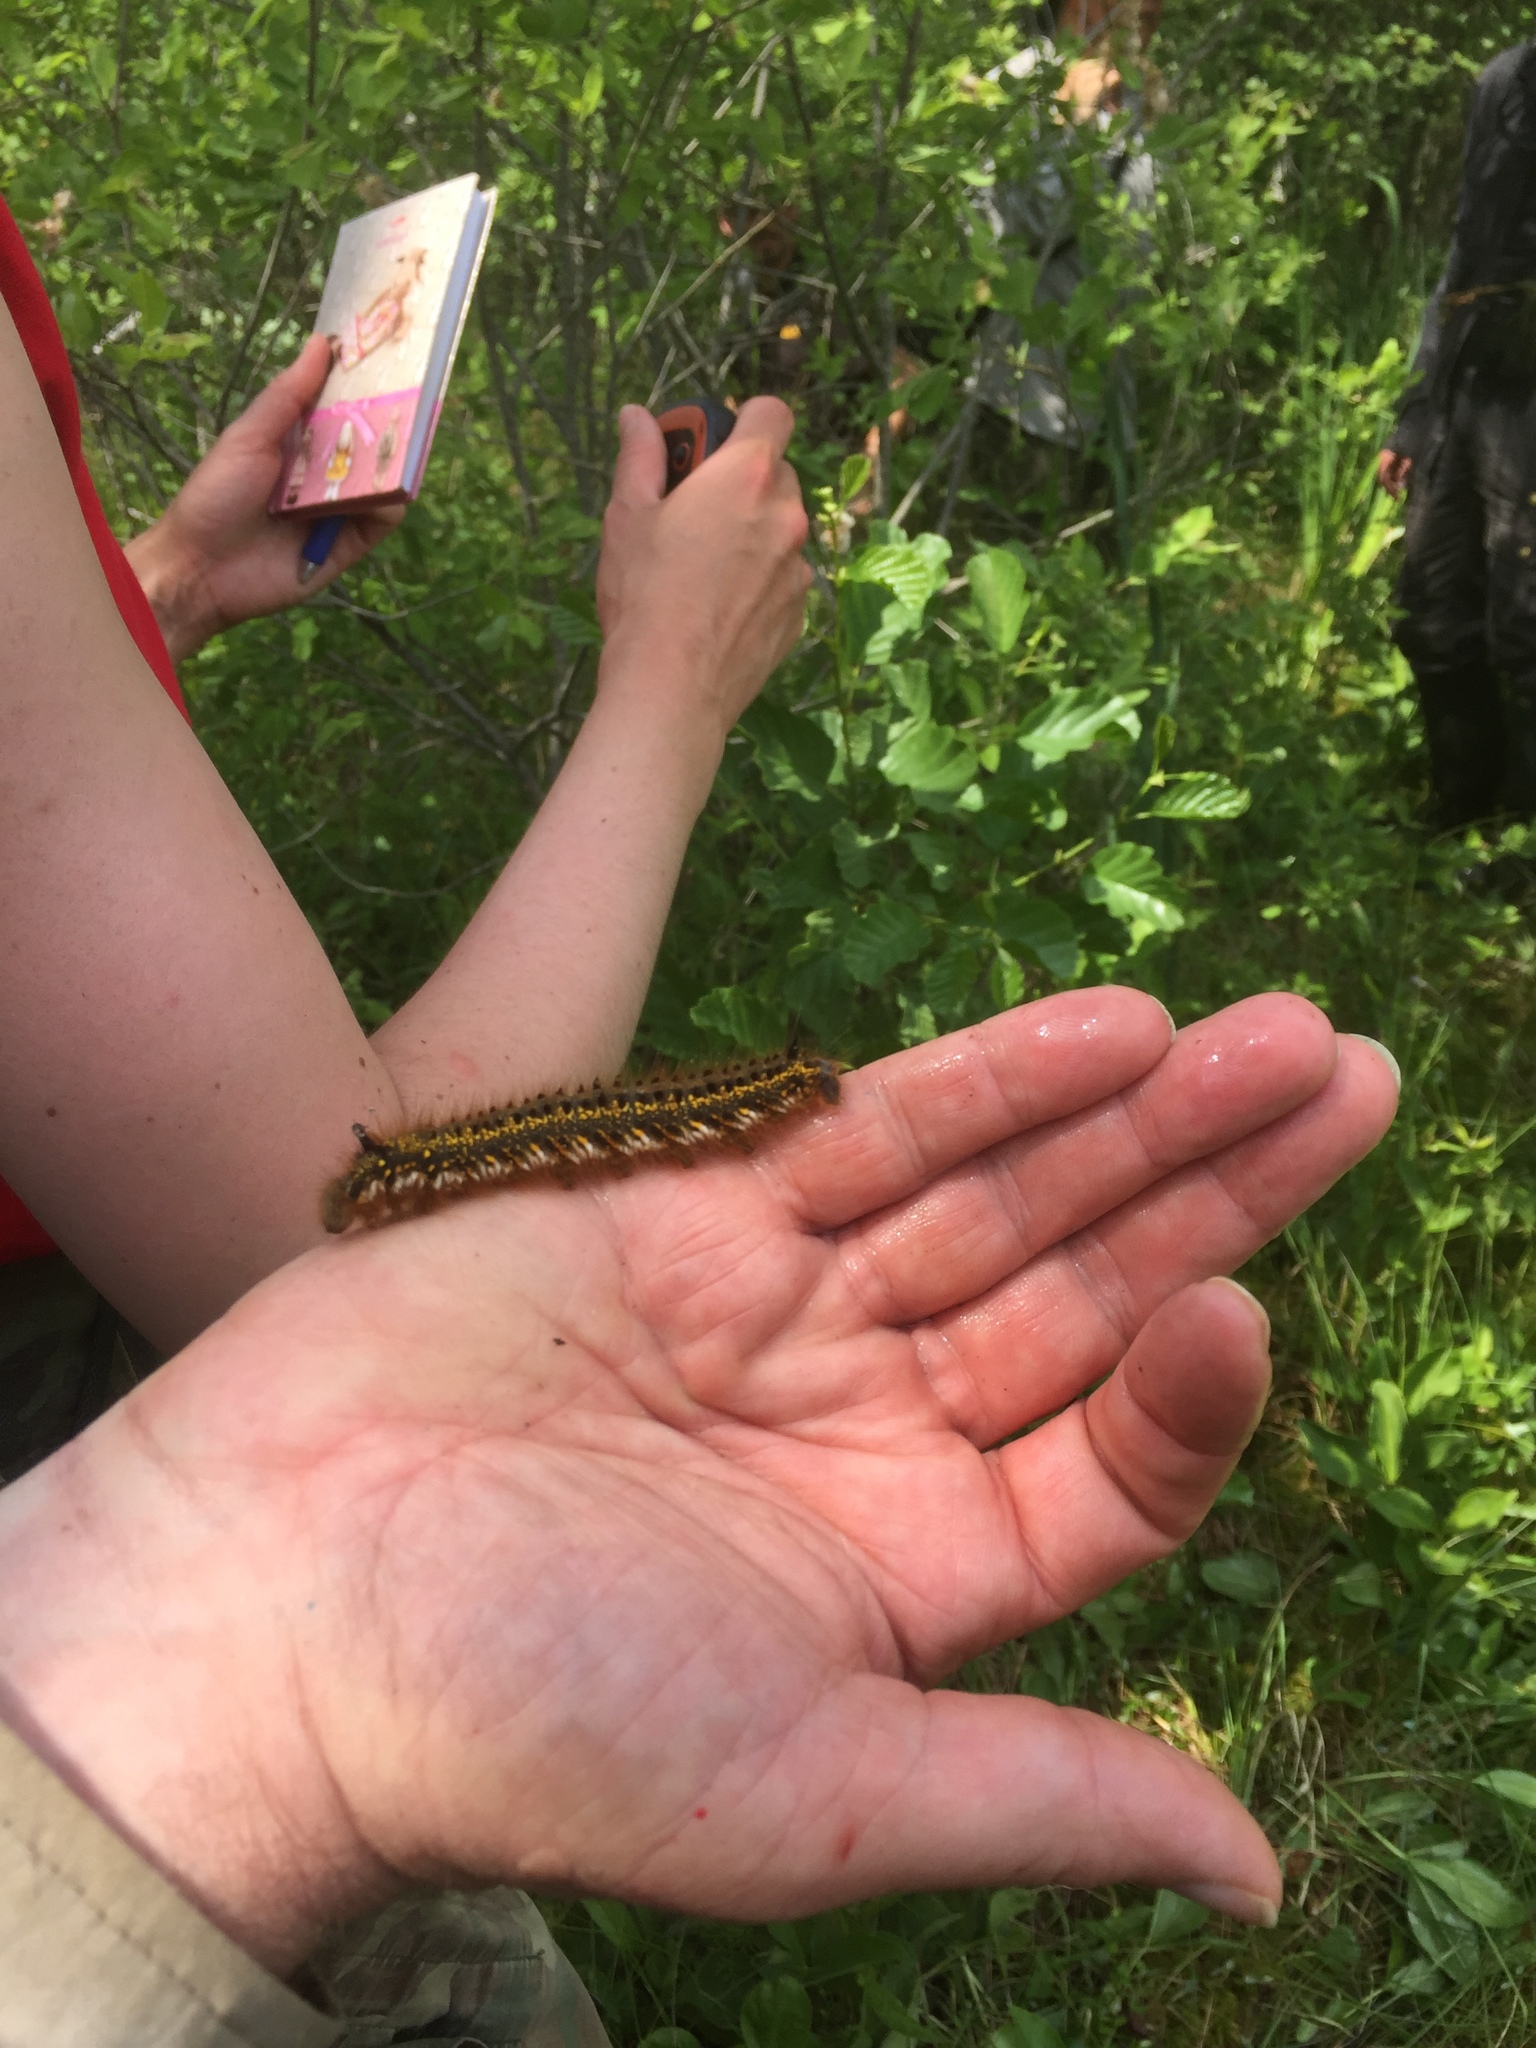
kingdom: Animalia
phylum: Arthropoda
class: Insecta
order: Lepidoptera
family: Lasiocampidae
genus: Euthrix
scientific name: Euthrix potatoria
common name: Drinker
